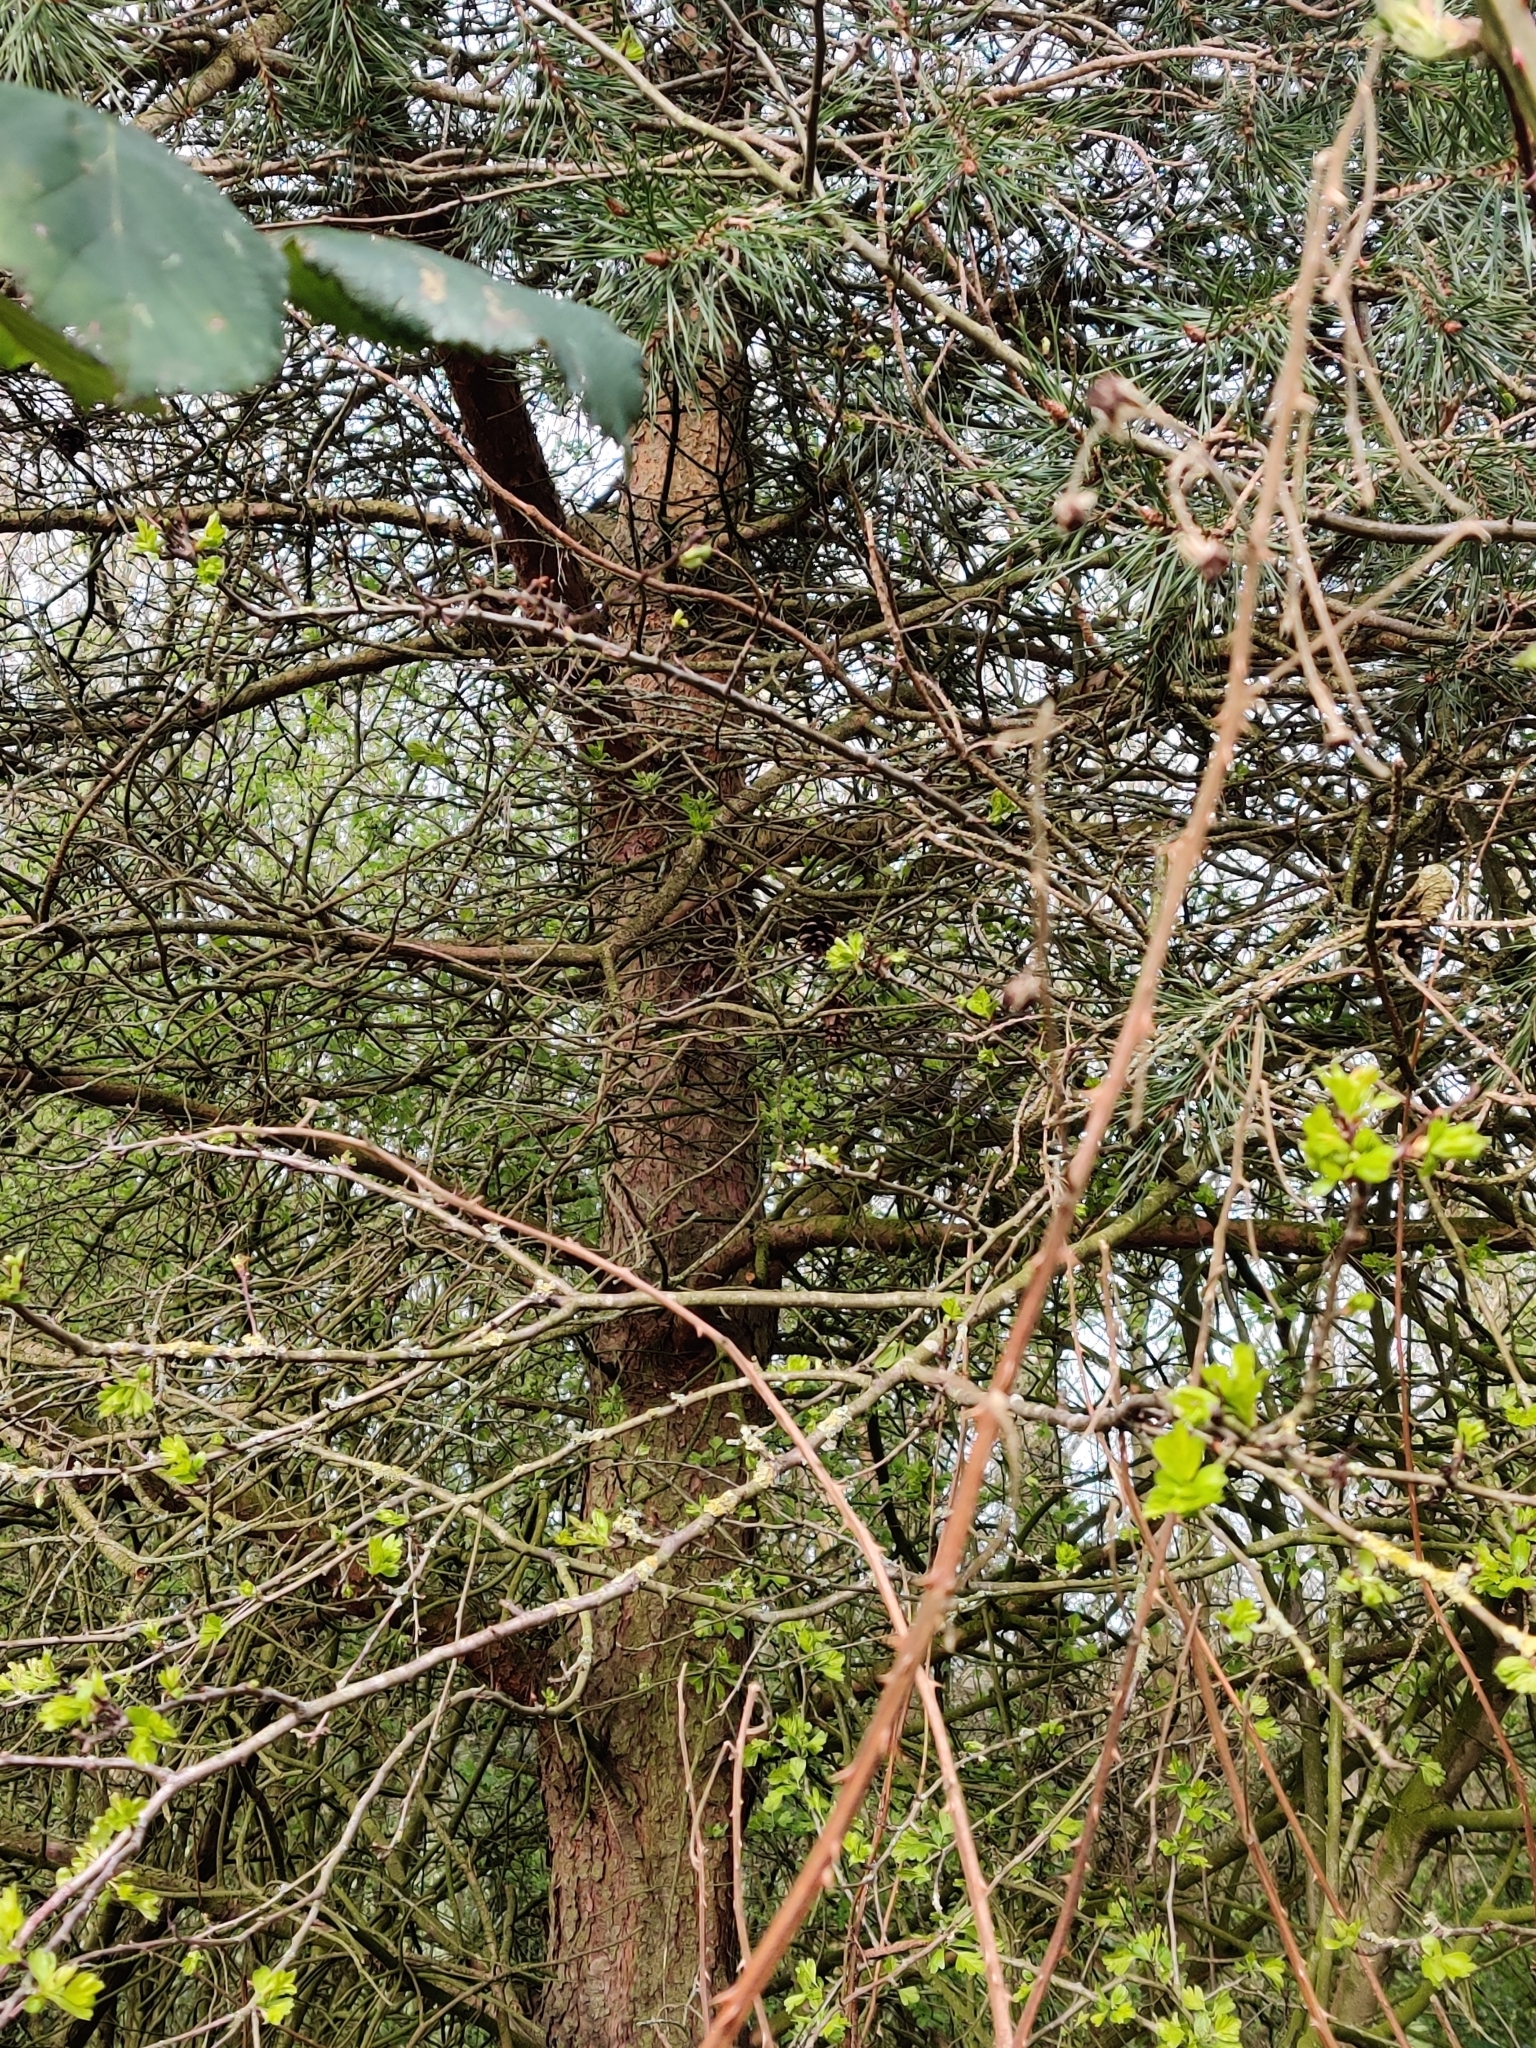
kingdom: Plantae
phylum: Tracheophyta
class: Pinopsida
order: Pinales
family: Pinaceae
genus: Pinus
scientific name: Pinus sylvestris
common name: Scots pine
